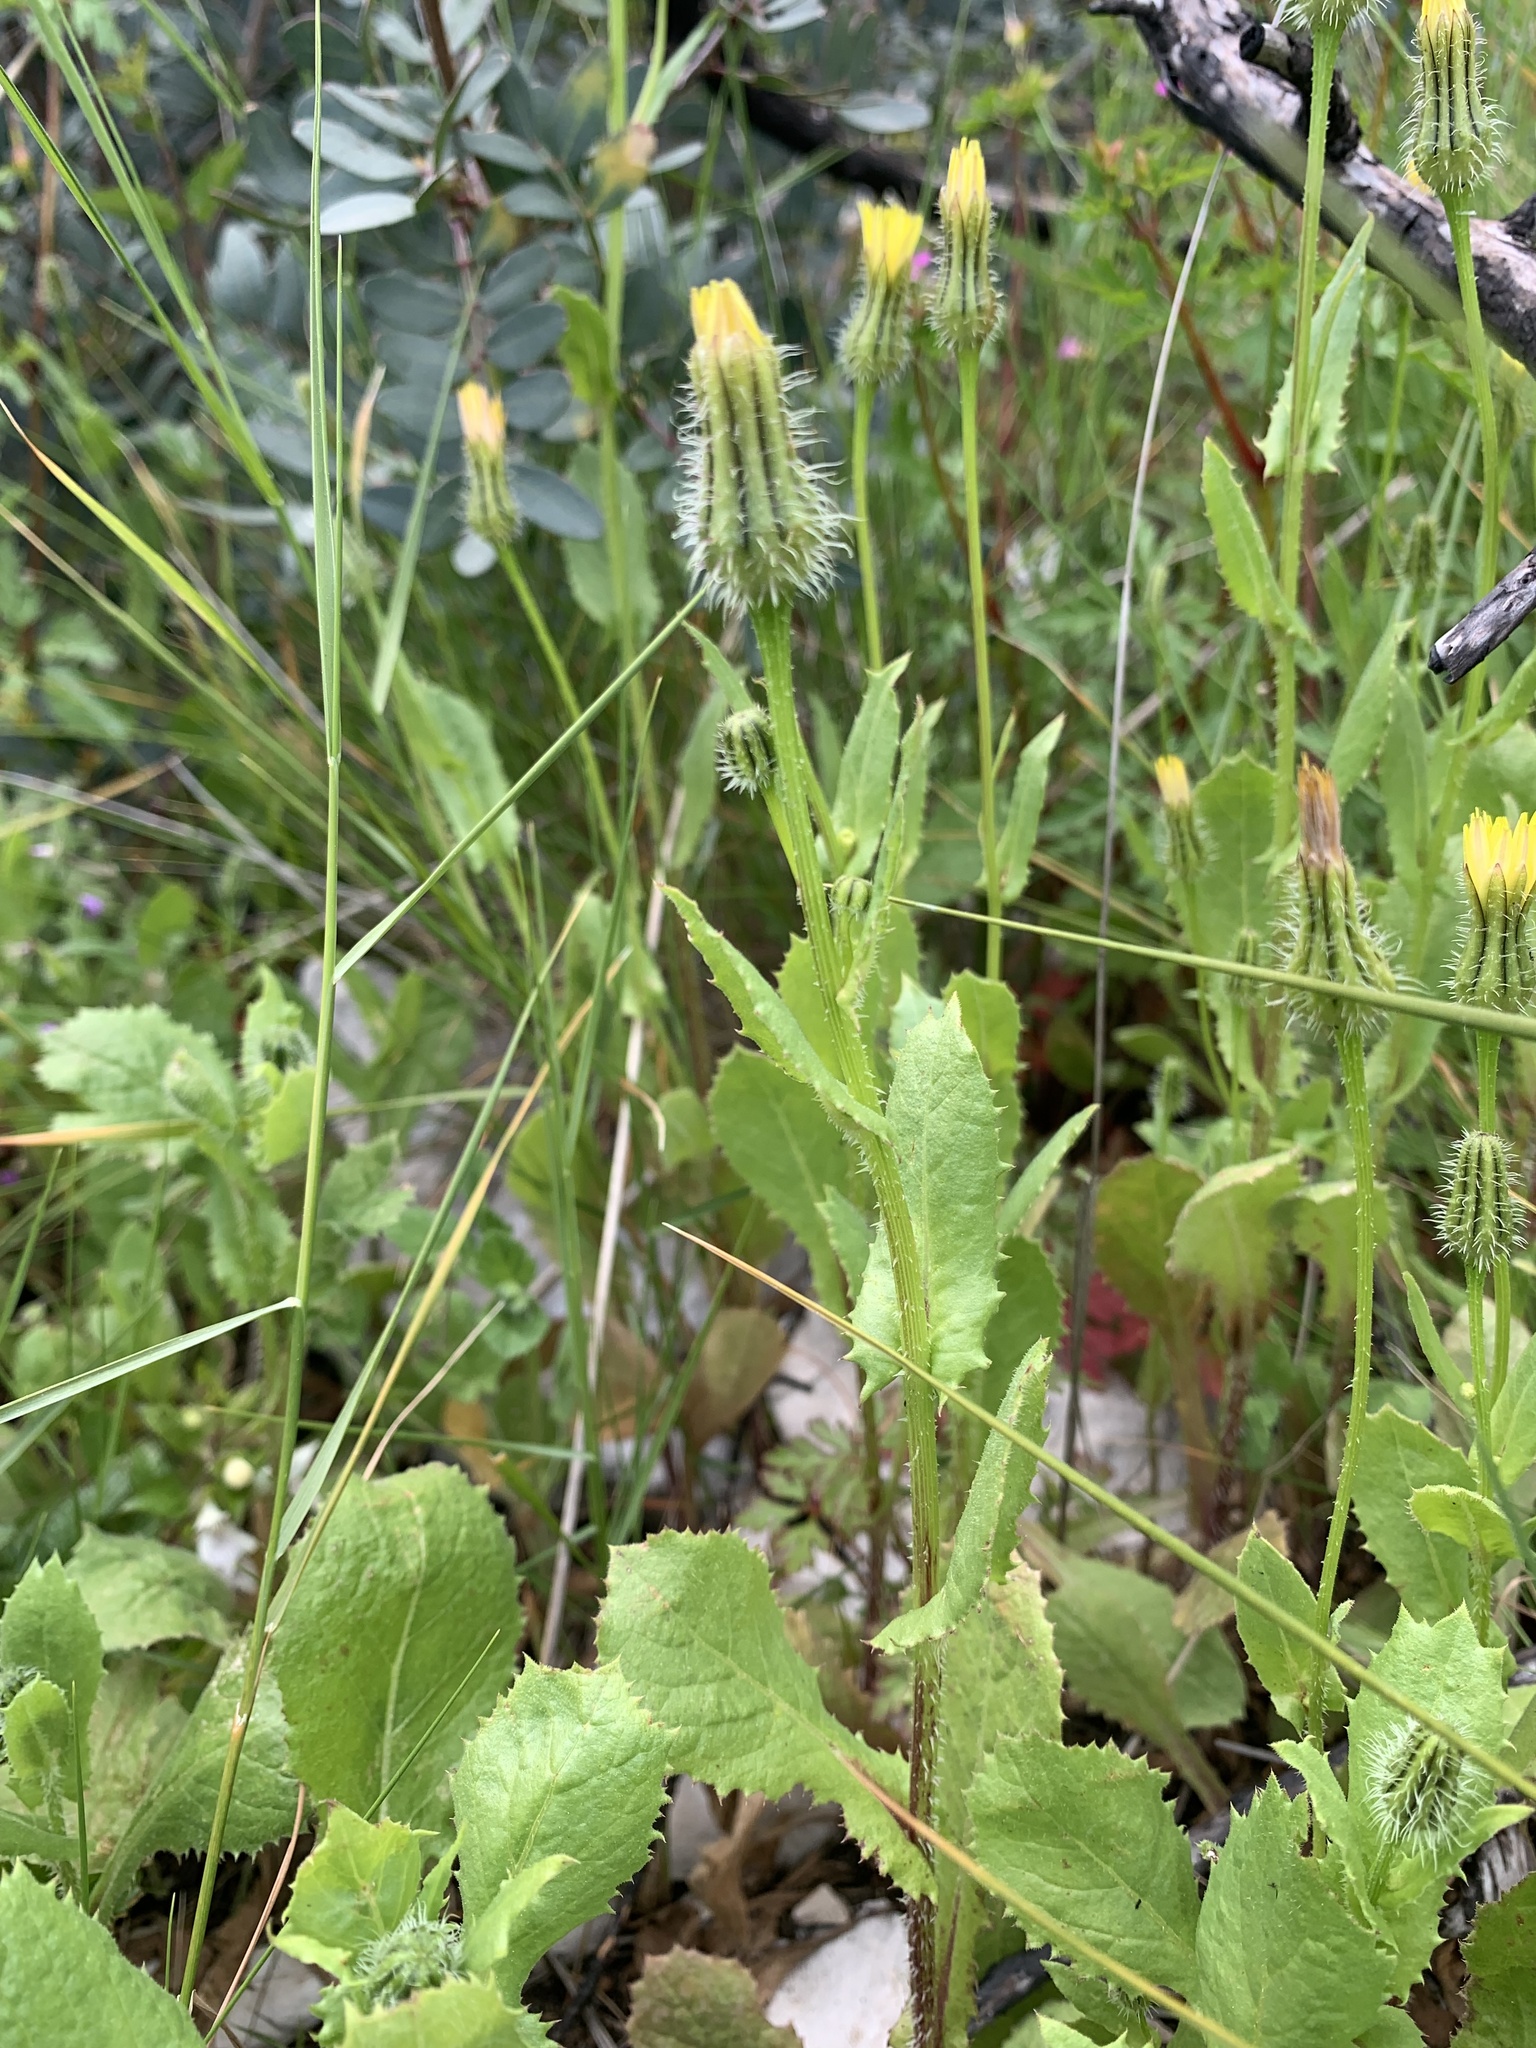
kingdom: Plantae
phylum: Tracheophyta
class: Magnoliopsida
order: Asterales
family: Asteraceae
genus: Urospermum
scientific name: Urospermum picroides
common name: False hawkbit
